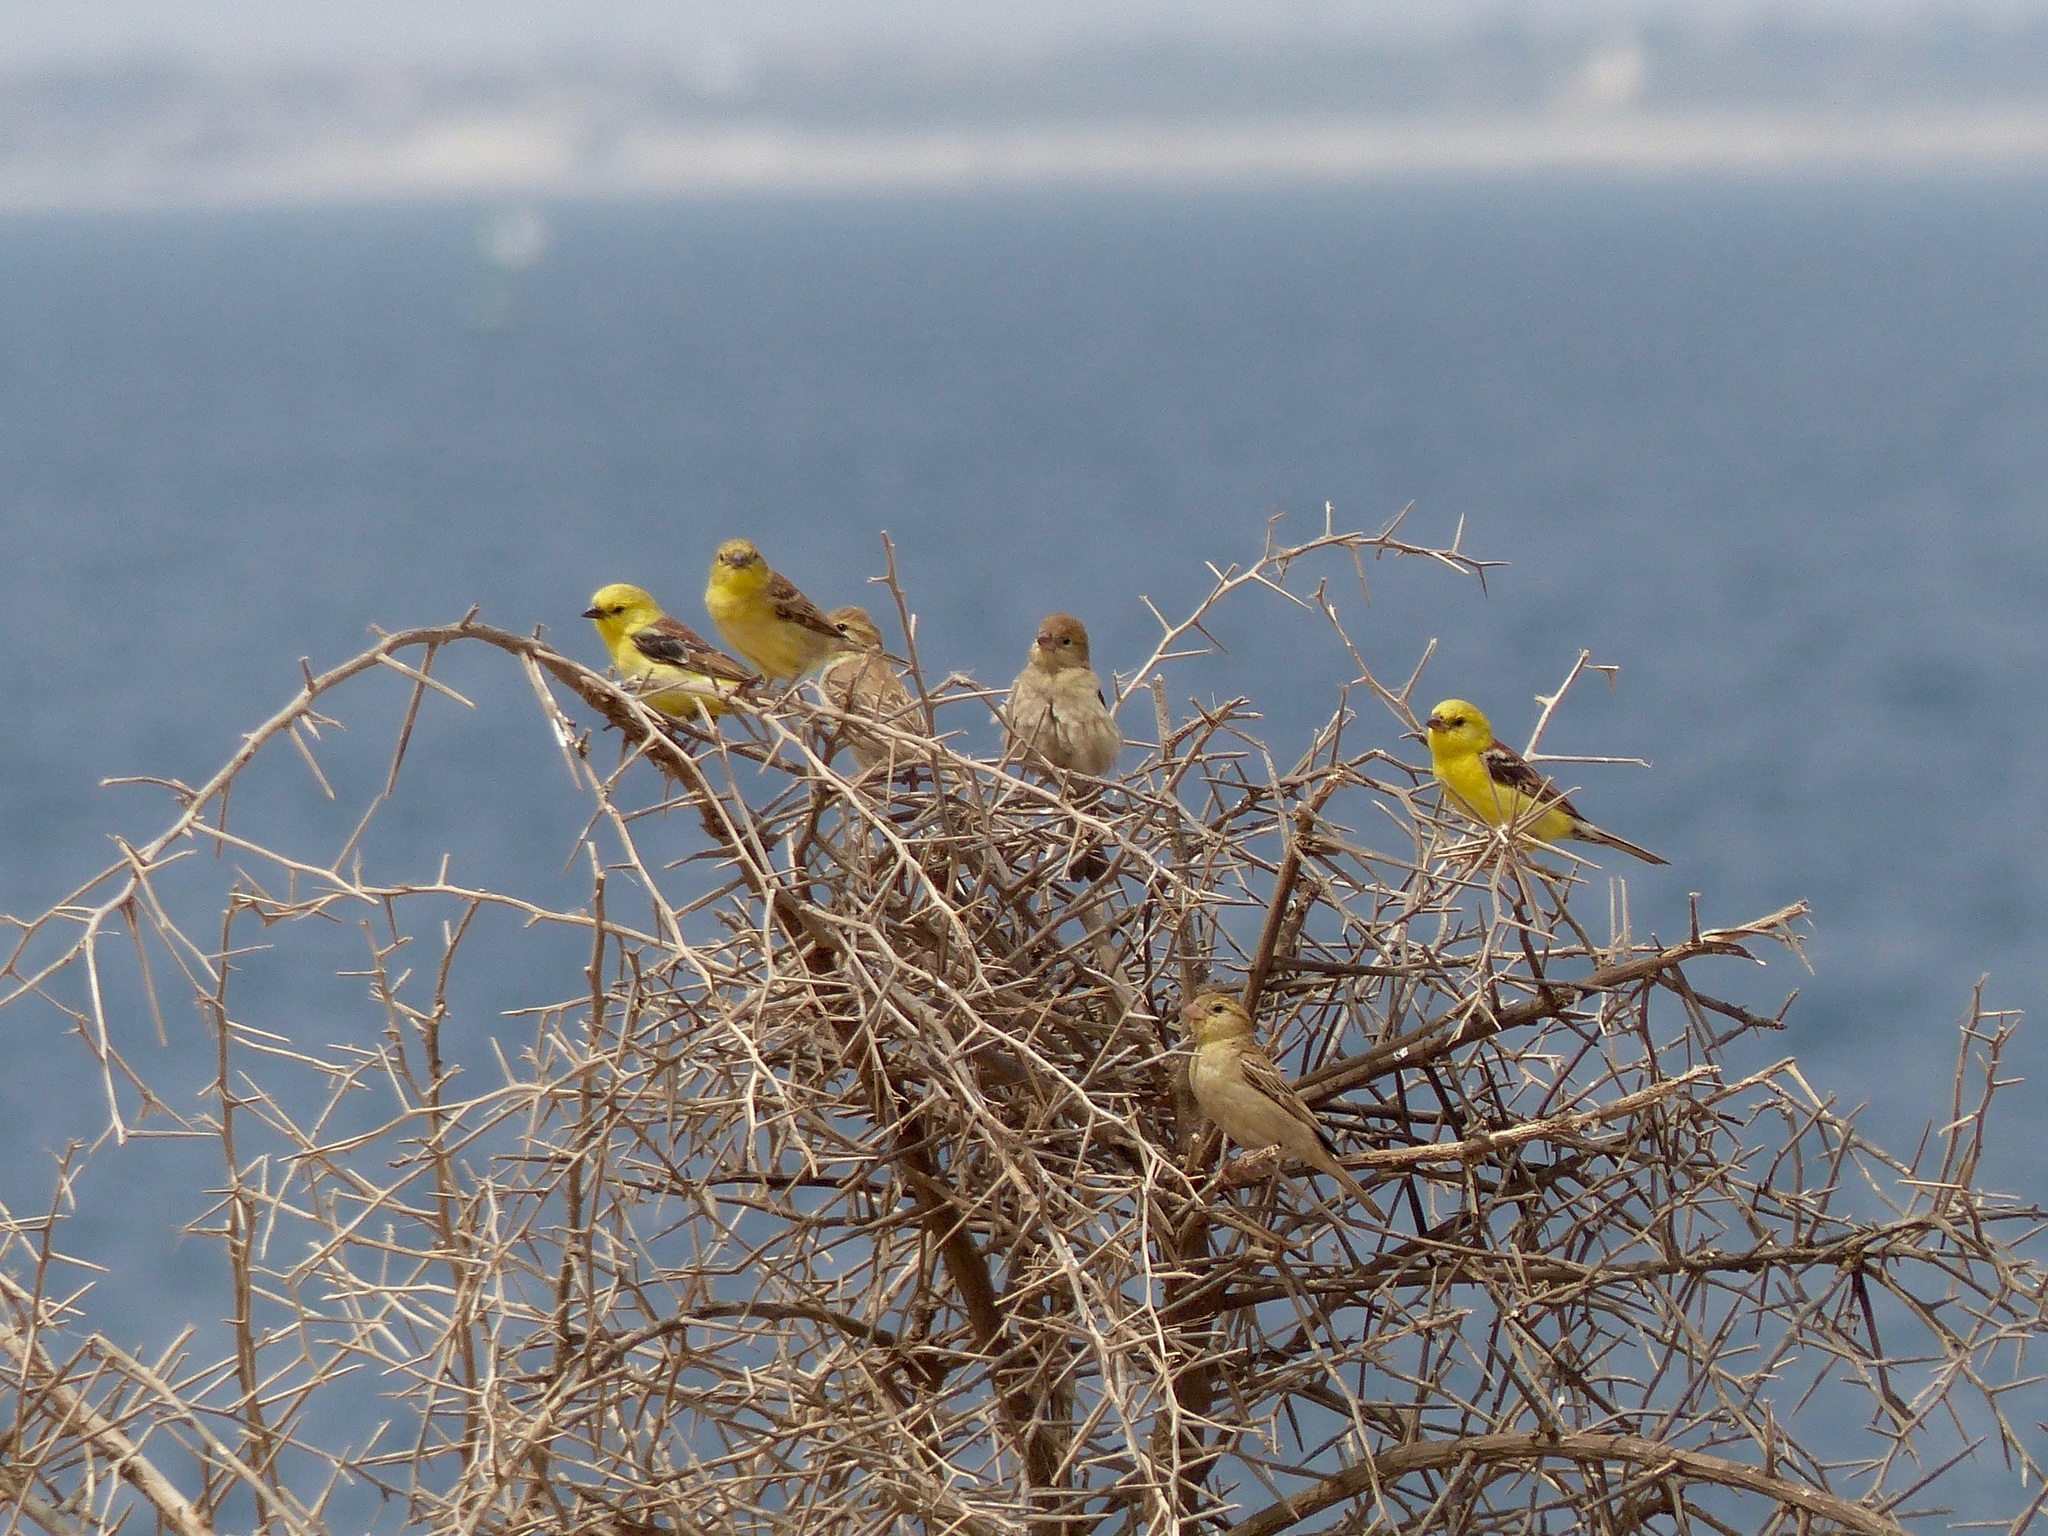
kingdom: Animalia
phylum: Chordata
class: Aves
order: Passeriformes
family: Passeridae
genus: Passer
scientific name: Passer luteus
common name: Sudan golden sparrow
